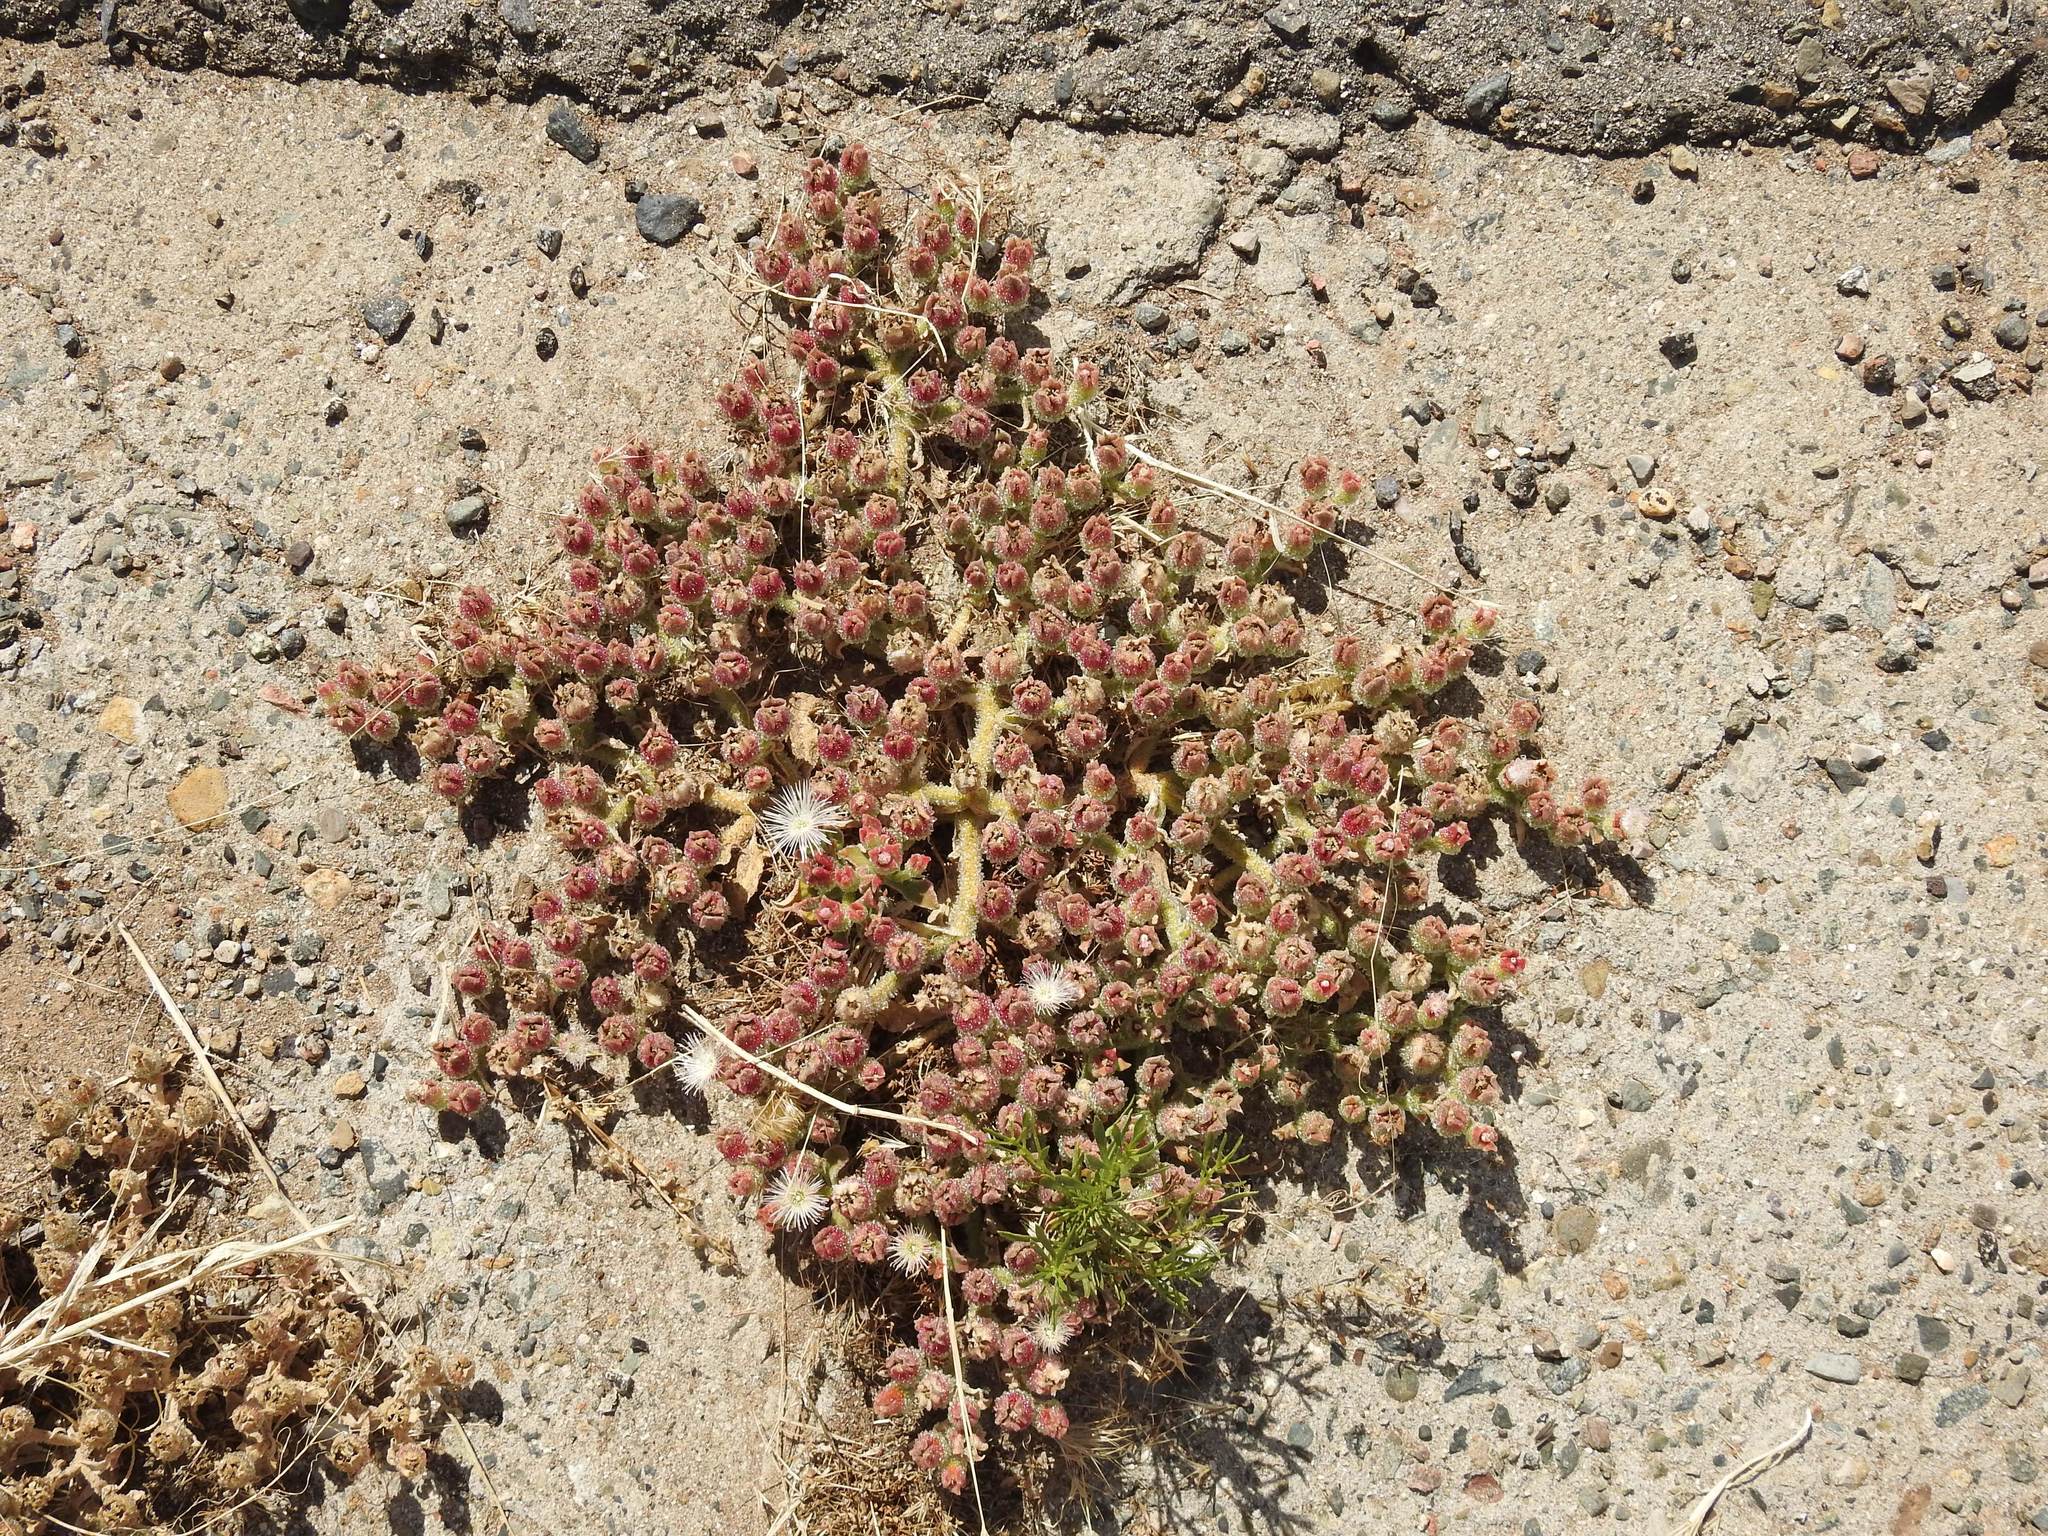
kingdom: Plantae
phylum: Tracheophyta
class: Magnoliopsida
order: Caryophyllales
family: Aizoaceae
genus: Mesembryanthemum
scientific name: Mesembryanthemum crystallinum
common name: Common iceplant
